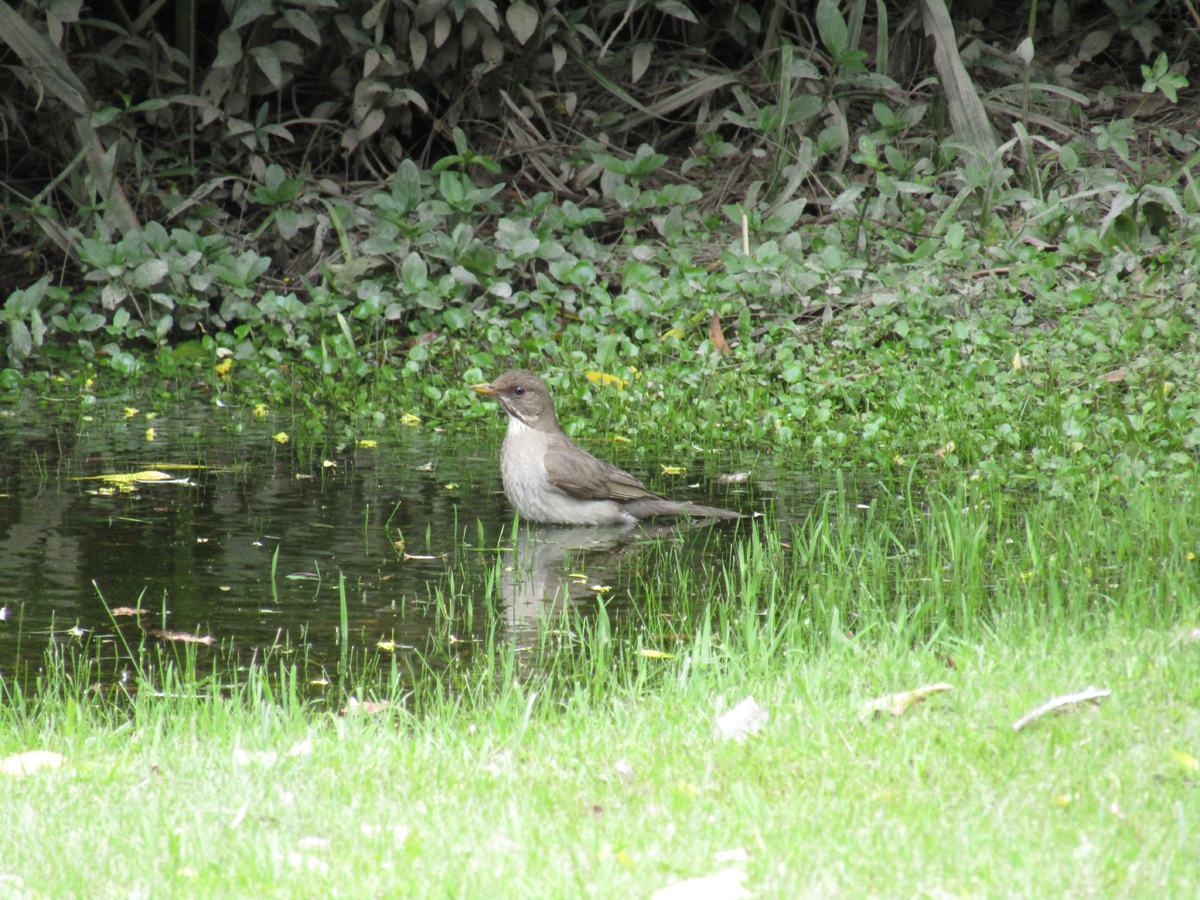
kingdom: Animalia
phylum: Chordata
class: Aves
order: Passeriformes
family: Turdidae
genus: Turdus
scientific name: Turdus amaurochalinus
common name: Creamy-bellied thrush
